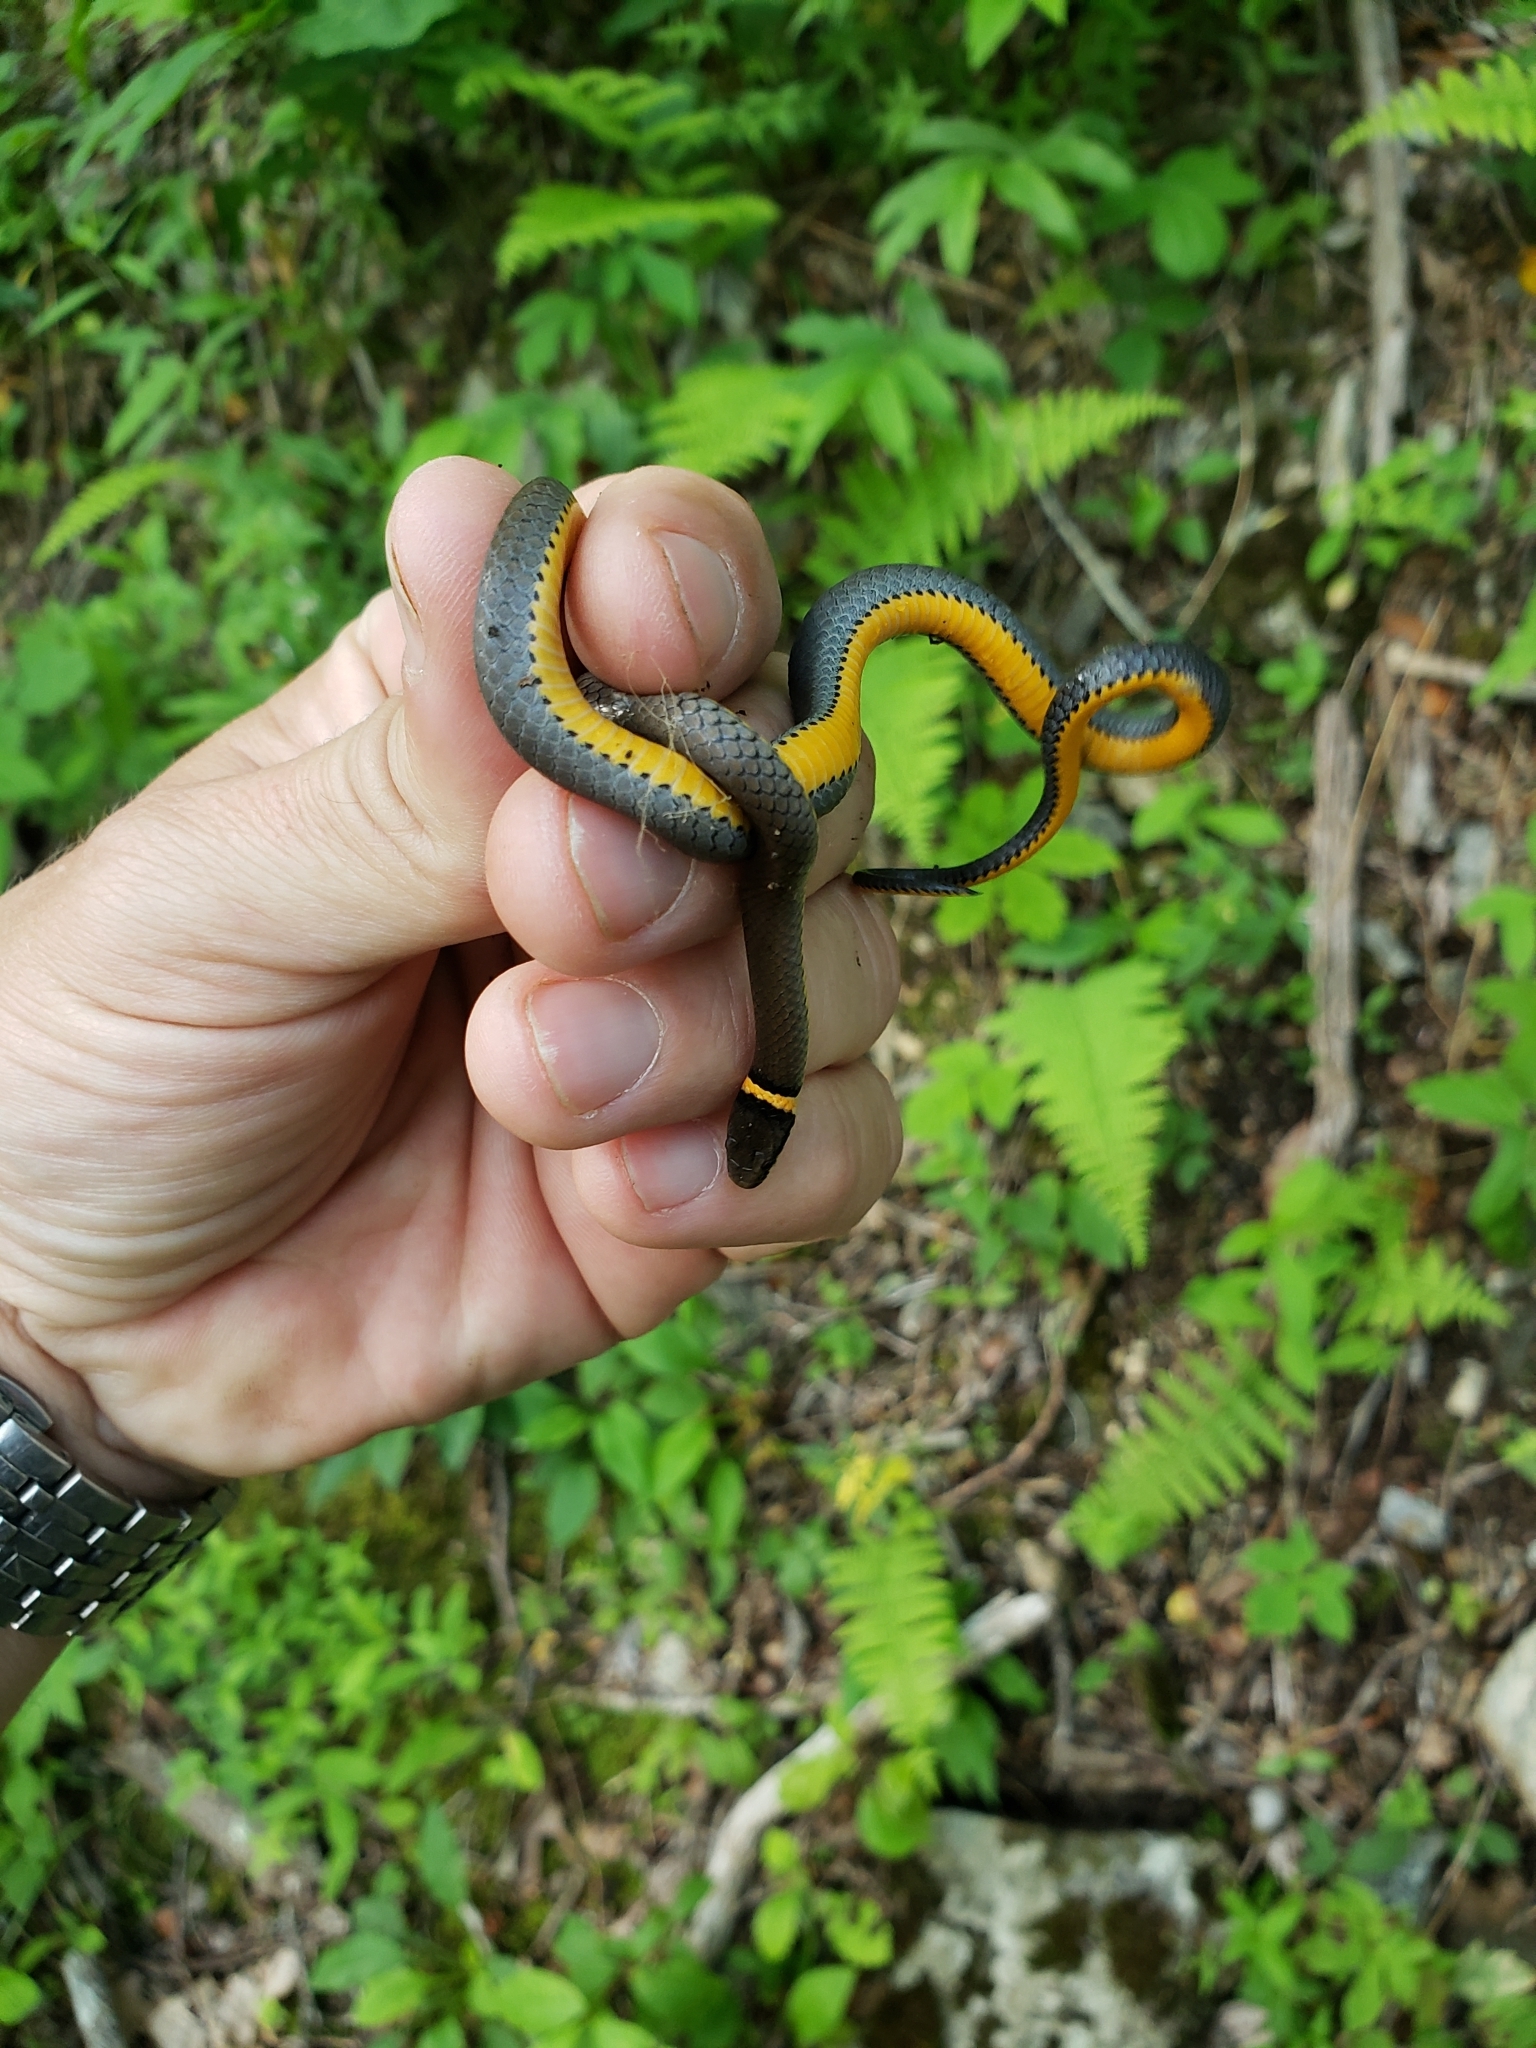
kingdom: Animalia
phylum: Chordata
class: Squamata
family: Colubridae
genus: Diadophis
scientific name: Diadophis punctatus
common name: Ringneck snake
